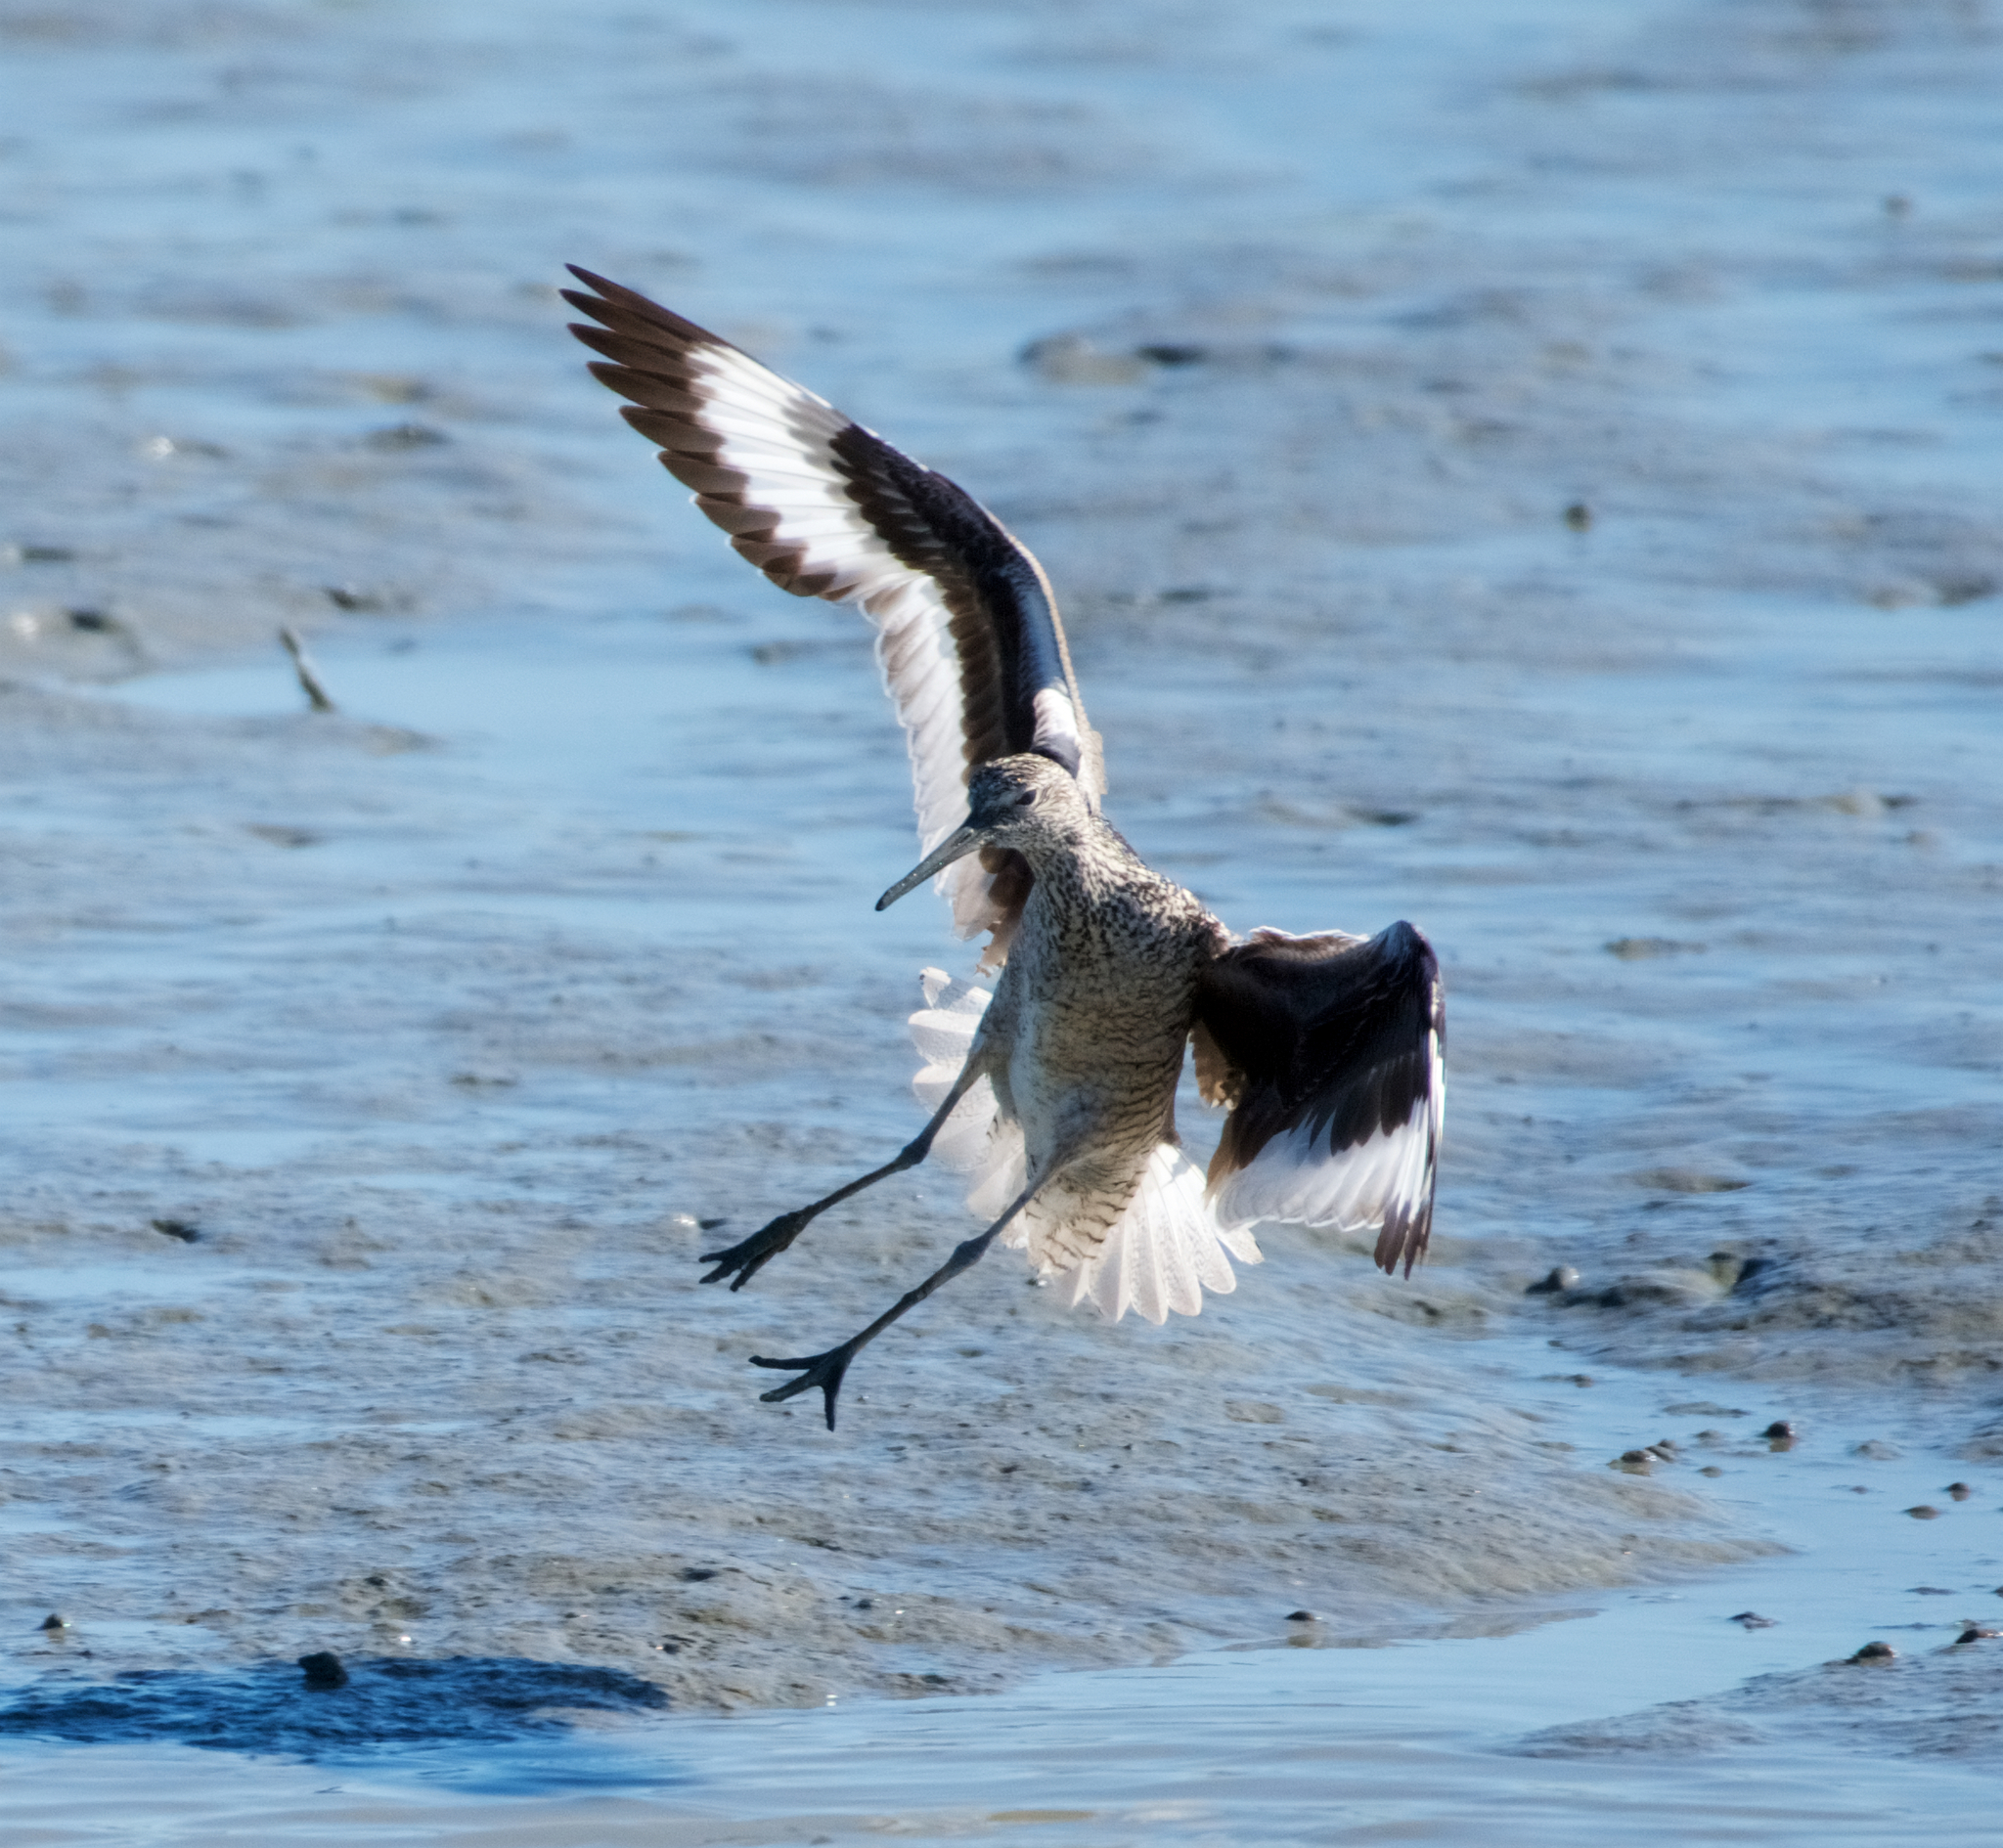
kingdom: Animalia
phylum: Chordata
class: Aves
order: Charadriiformes
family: Scolopacidae
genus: Tringa
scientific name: Tringa semipalmata
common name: Willet
